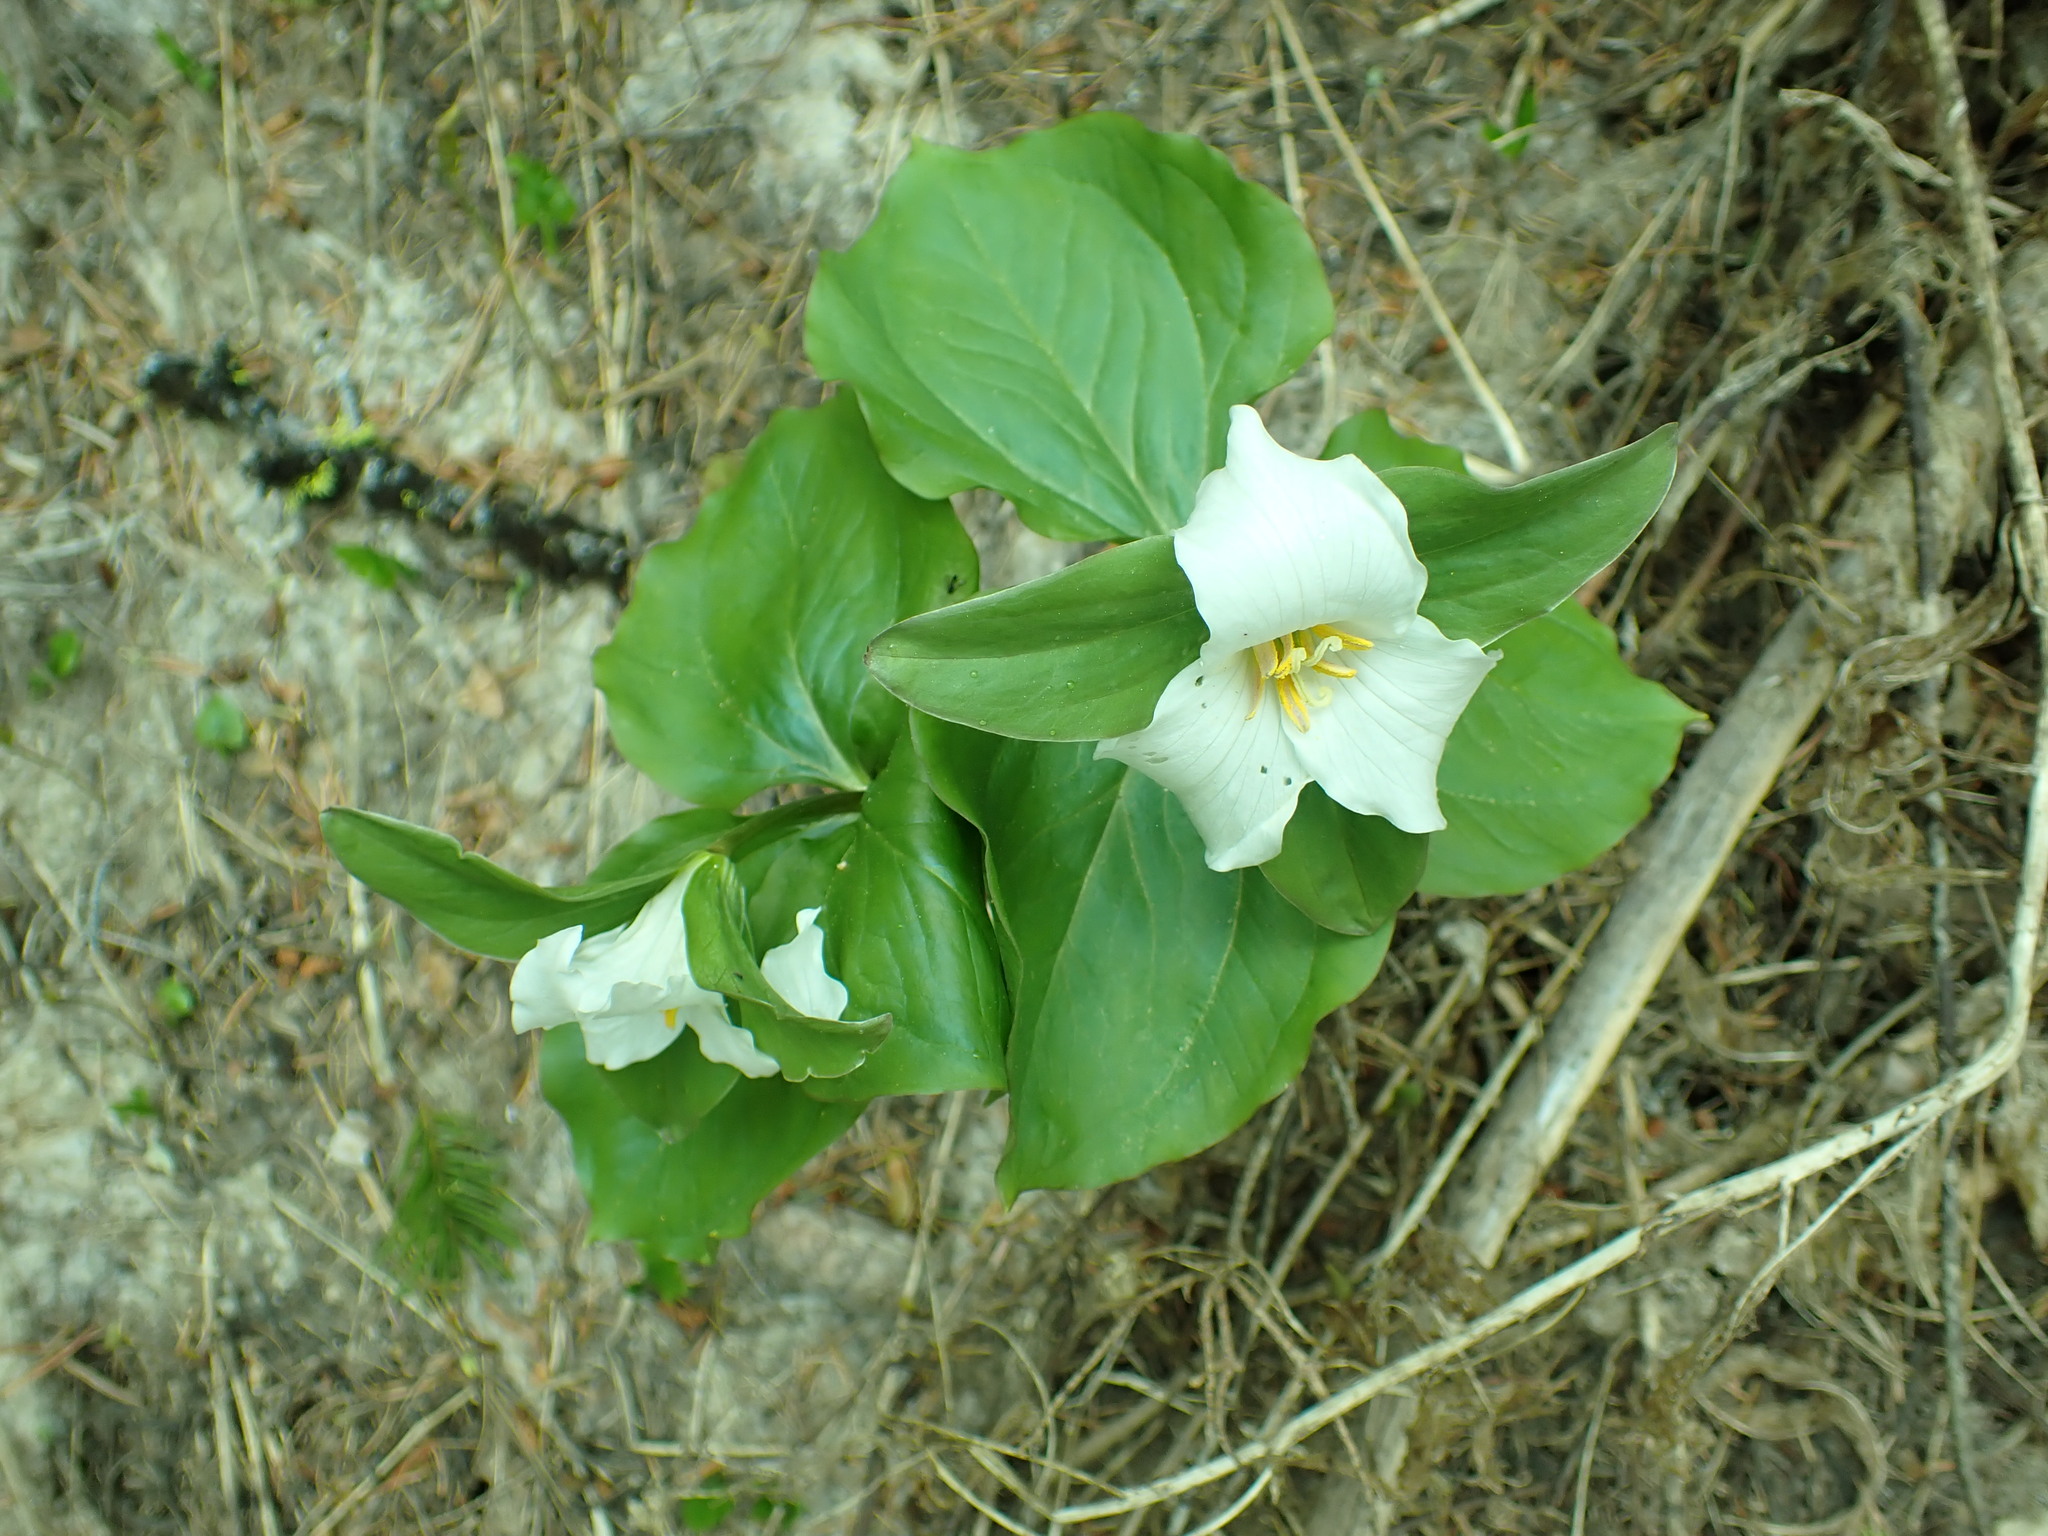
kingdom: Plantae
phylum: Tracheophyta
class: Liliopsida
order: Liliales
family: Melanthiaceae
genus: Trillium
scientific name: Trillium crassifolium
